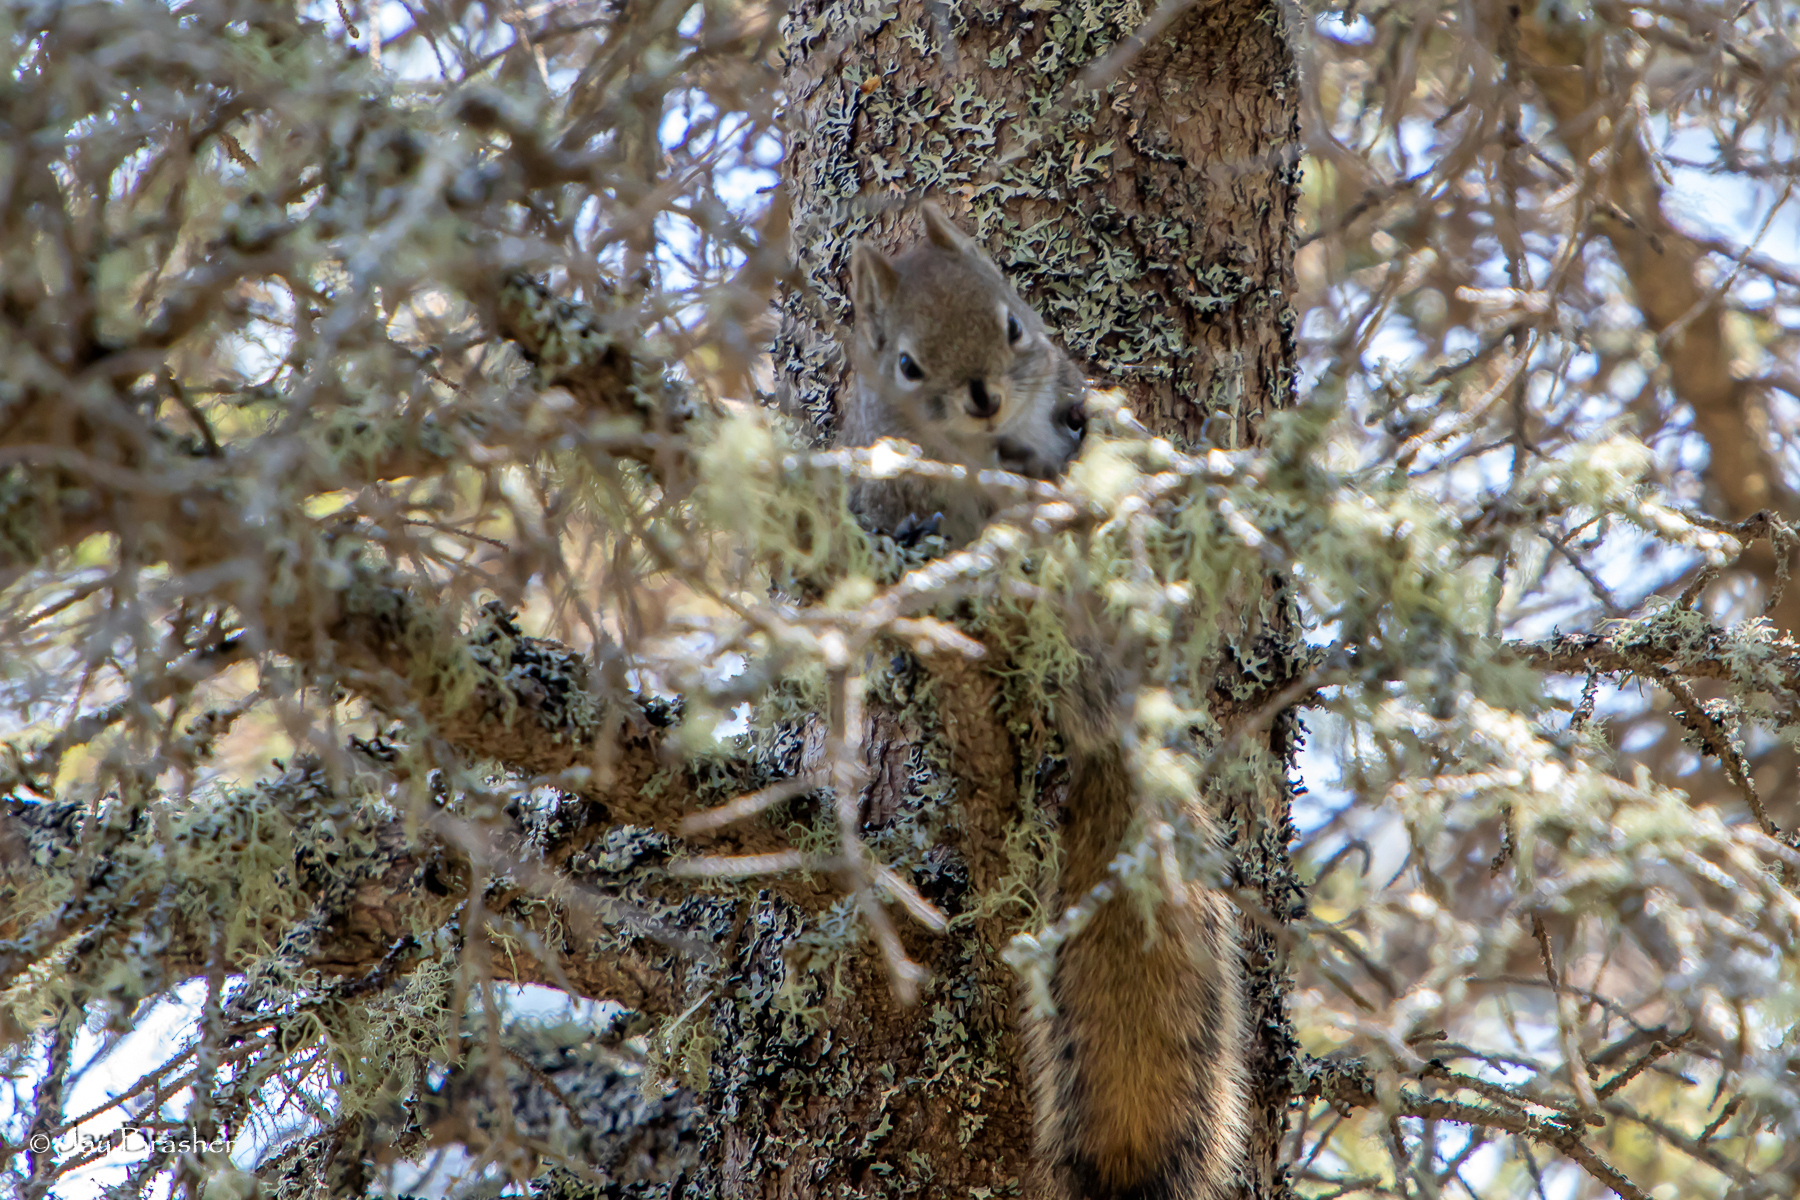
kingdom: Animalia
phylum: Chordata
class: Mammalia
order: Rodentia
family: Sciuridae
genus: Tamiasciurus
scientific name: Tamiasciurus hudsonicus
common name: Red squirrel
